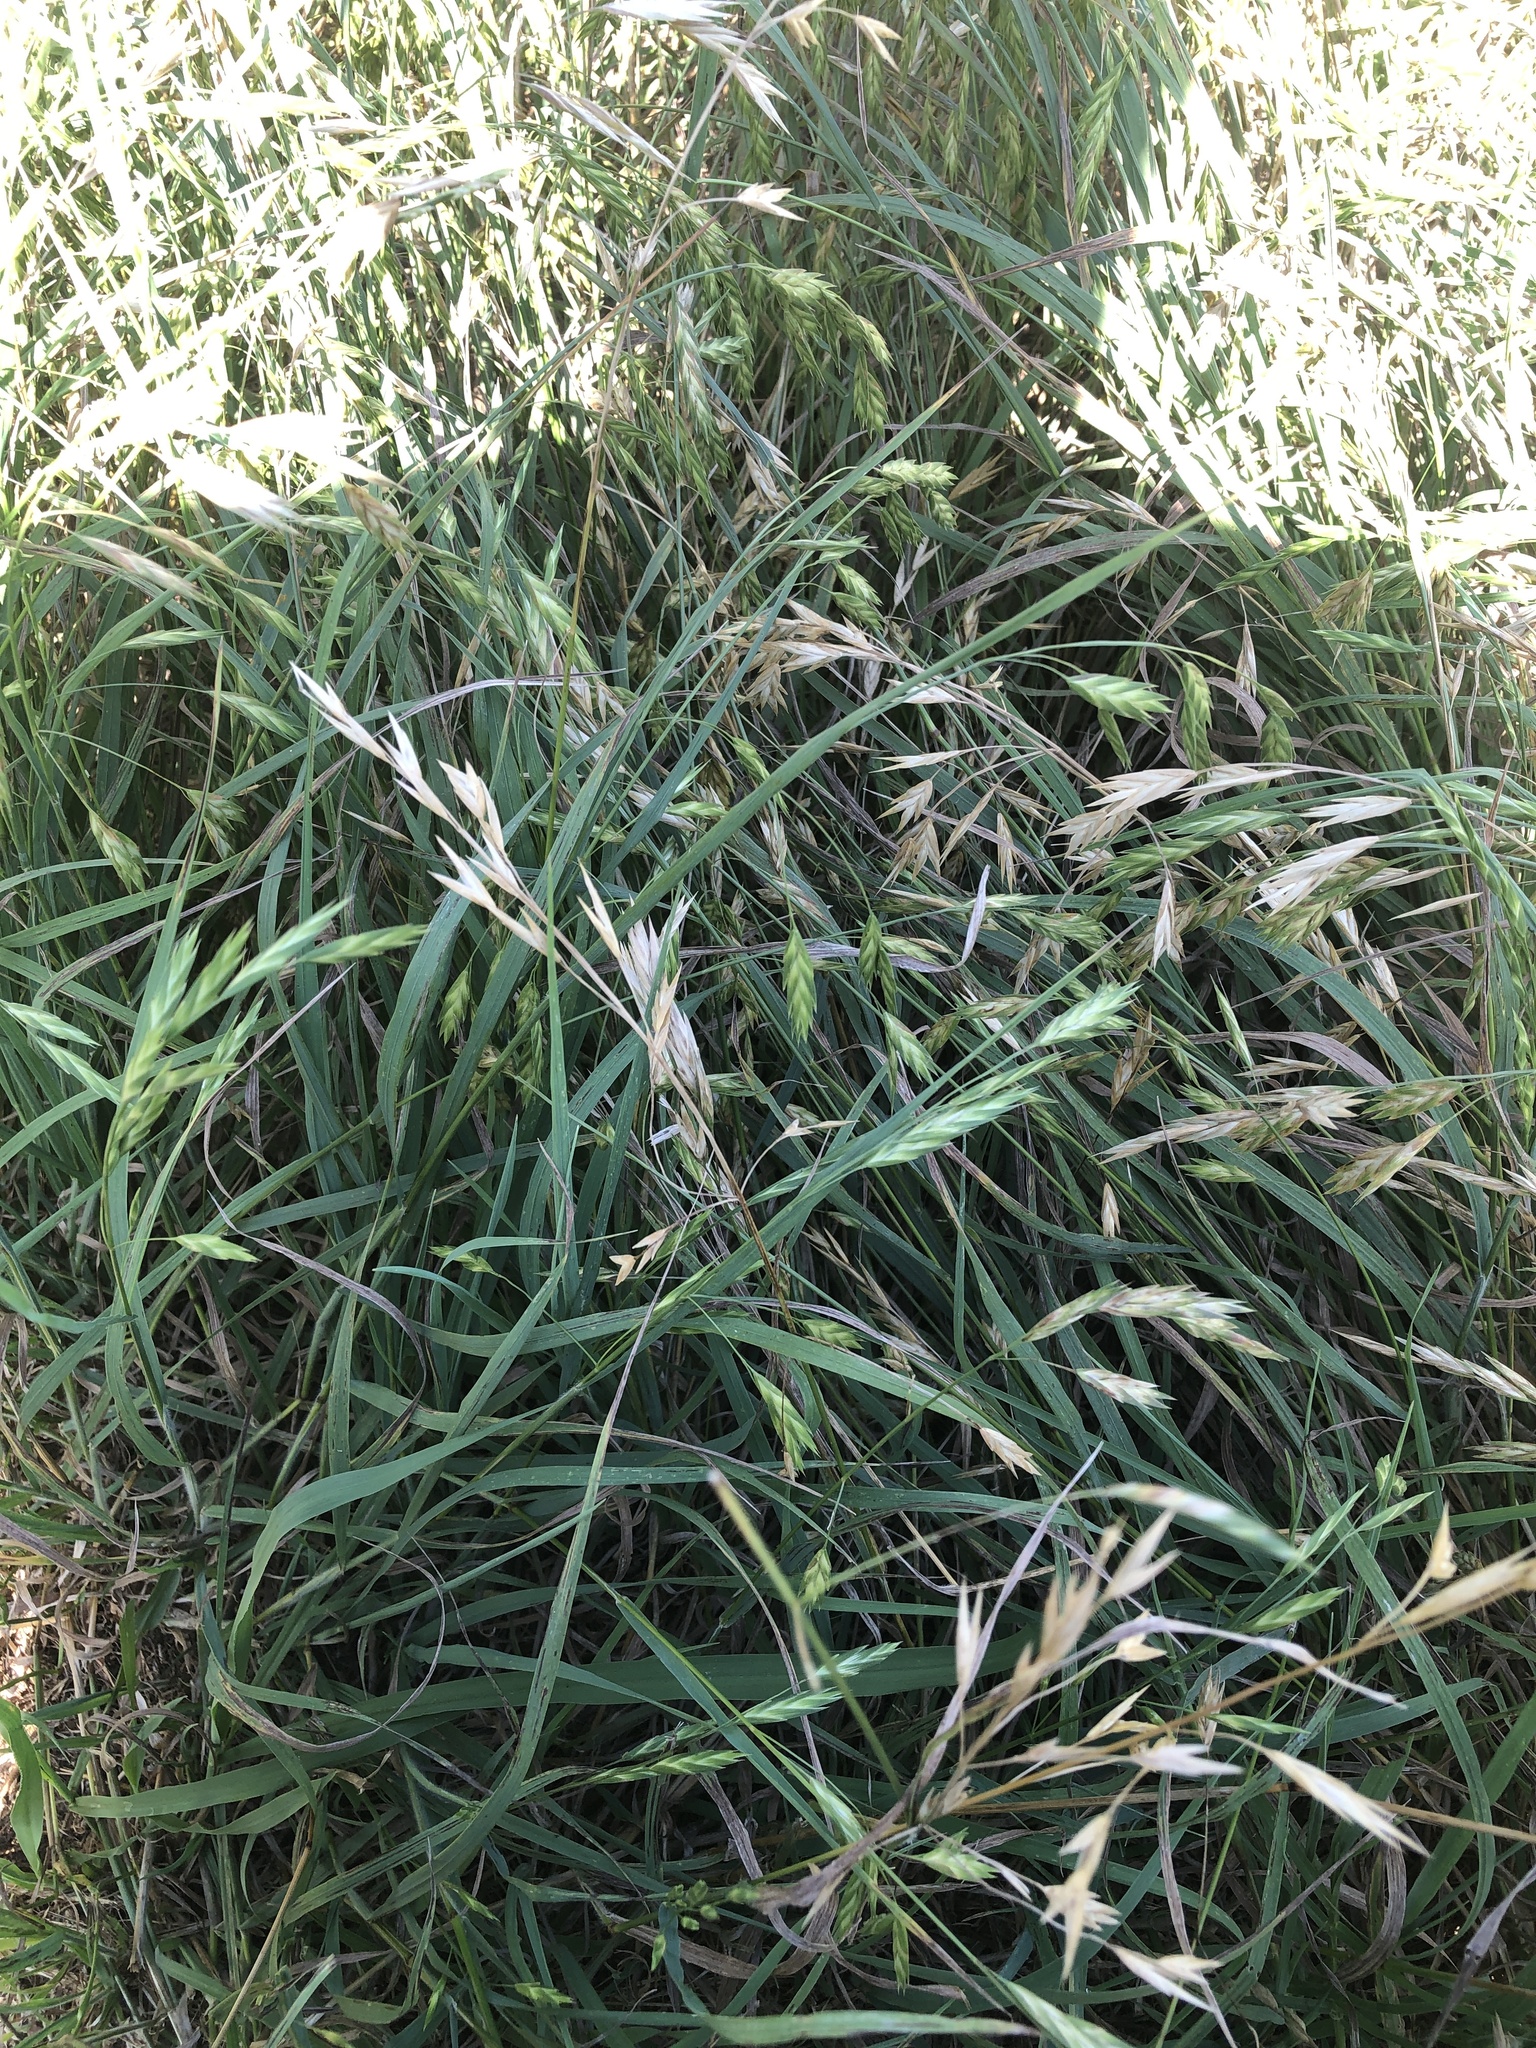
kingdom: Plantae
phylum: Tracheophyta
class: Liliopsida
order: Poales
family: Poaceae
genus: Bromus
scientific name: Bromus catharticus
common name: Rescuegrass
